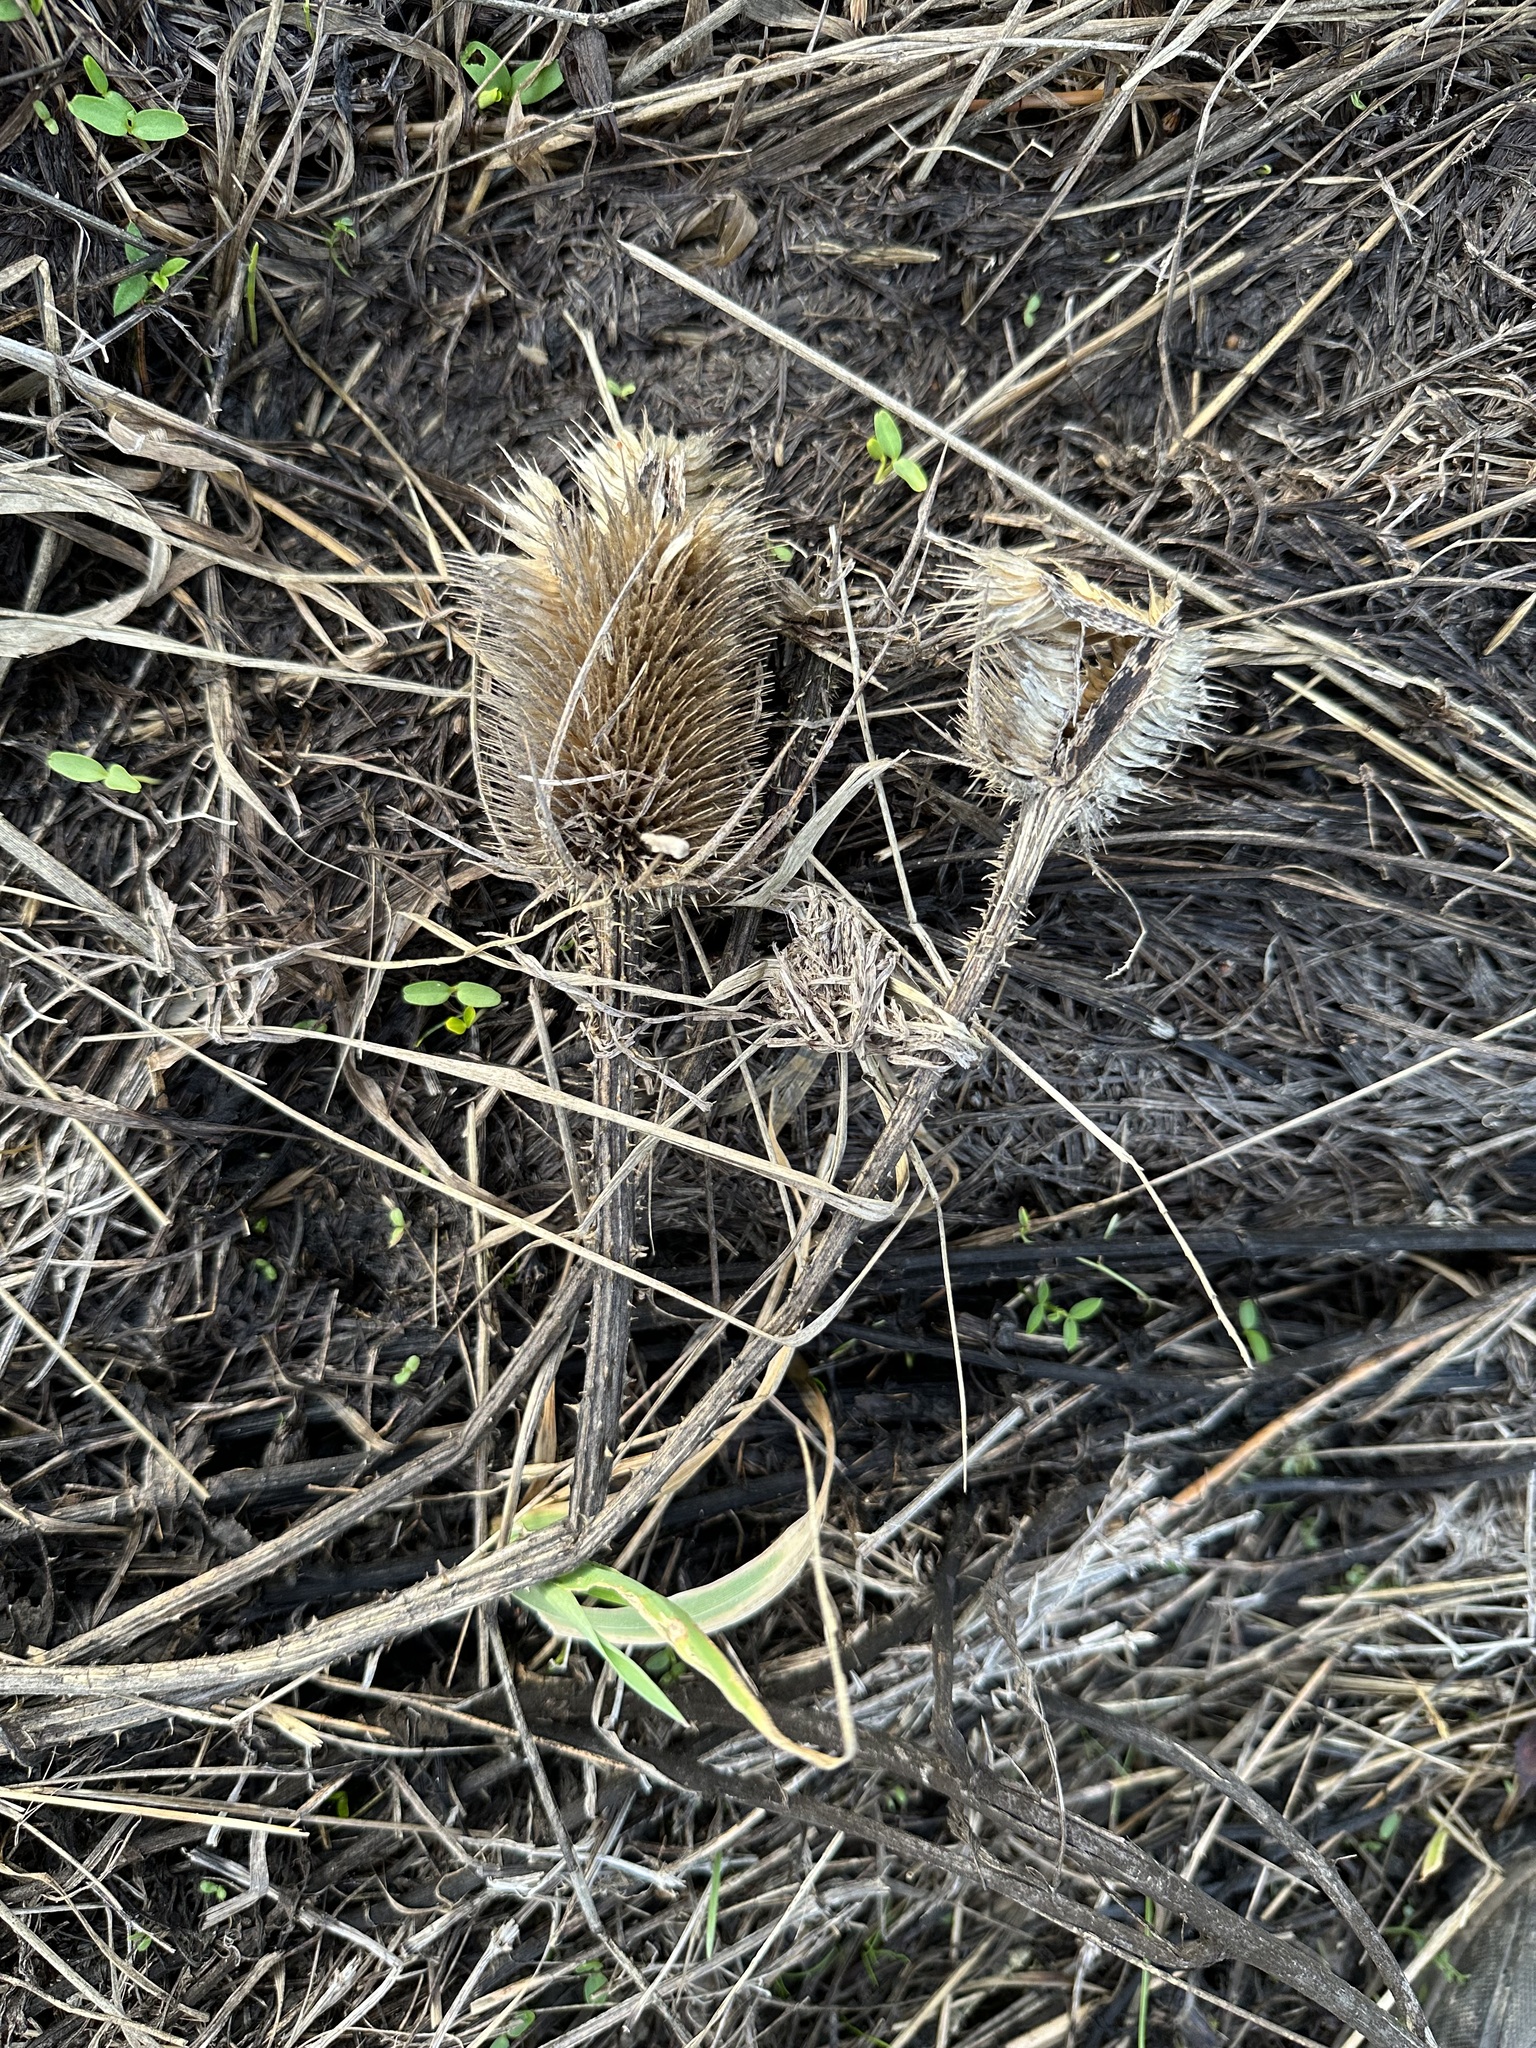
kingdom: Plantae
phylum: Tracheophyta
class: Magnoliopsida
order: Dipsacales
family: Caprifoliaceae
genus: Dipsacus
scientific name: Dipsacus fullonum
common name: Teasel
